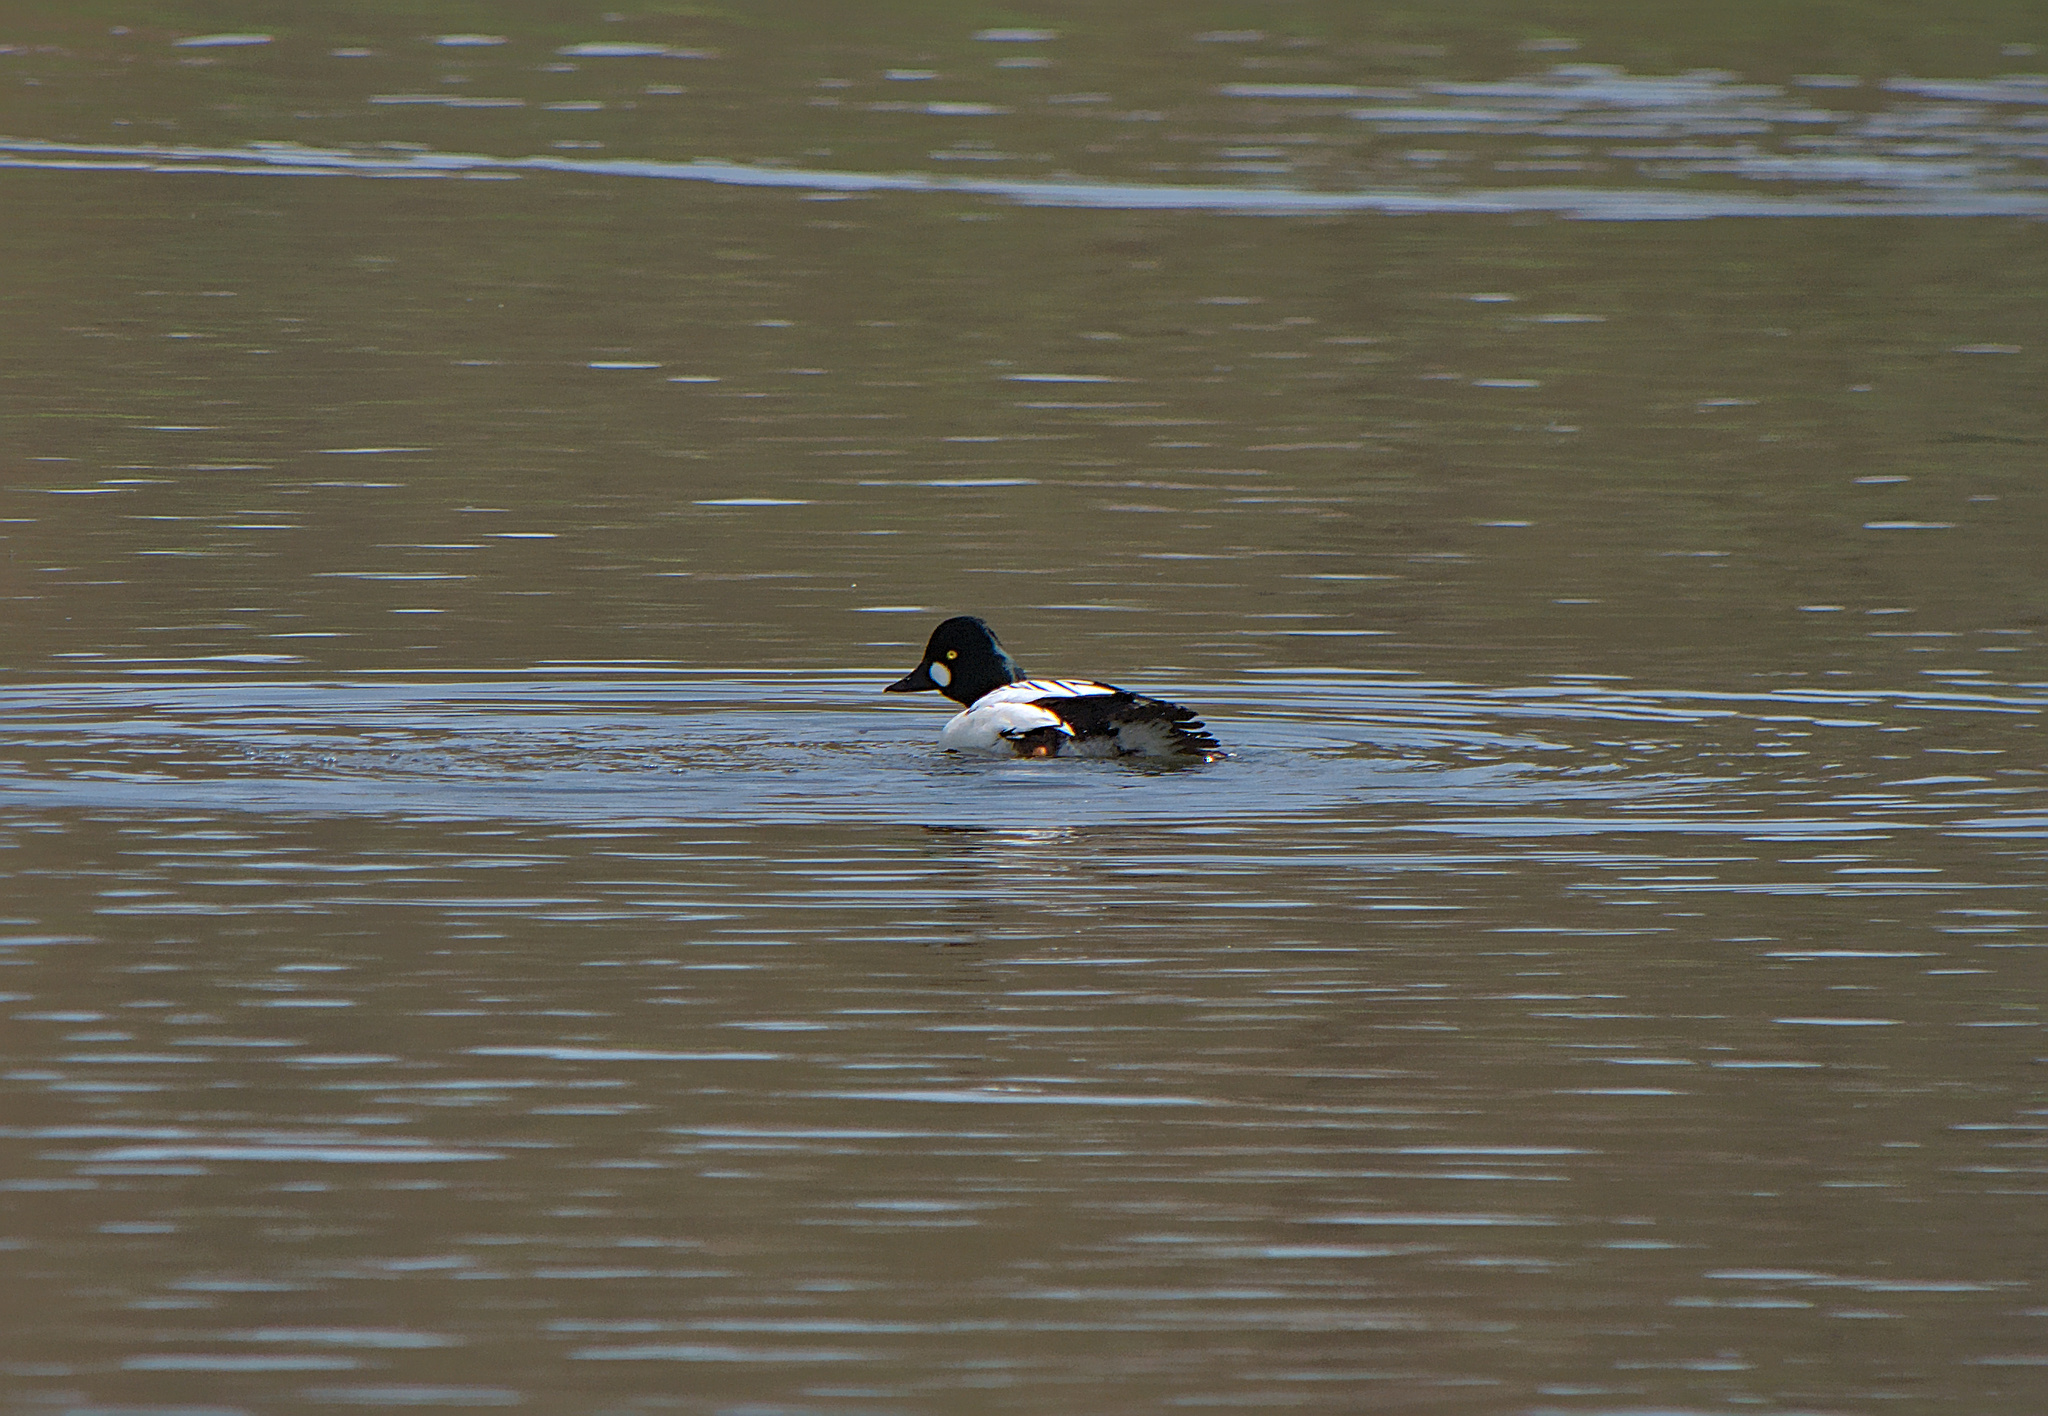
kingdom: Animalia
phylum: Chordata
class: Aves
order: Anseriformes
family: Anatidae
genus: Bucephala
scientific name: Bucephala clangula
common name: Common goldeneye
